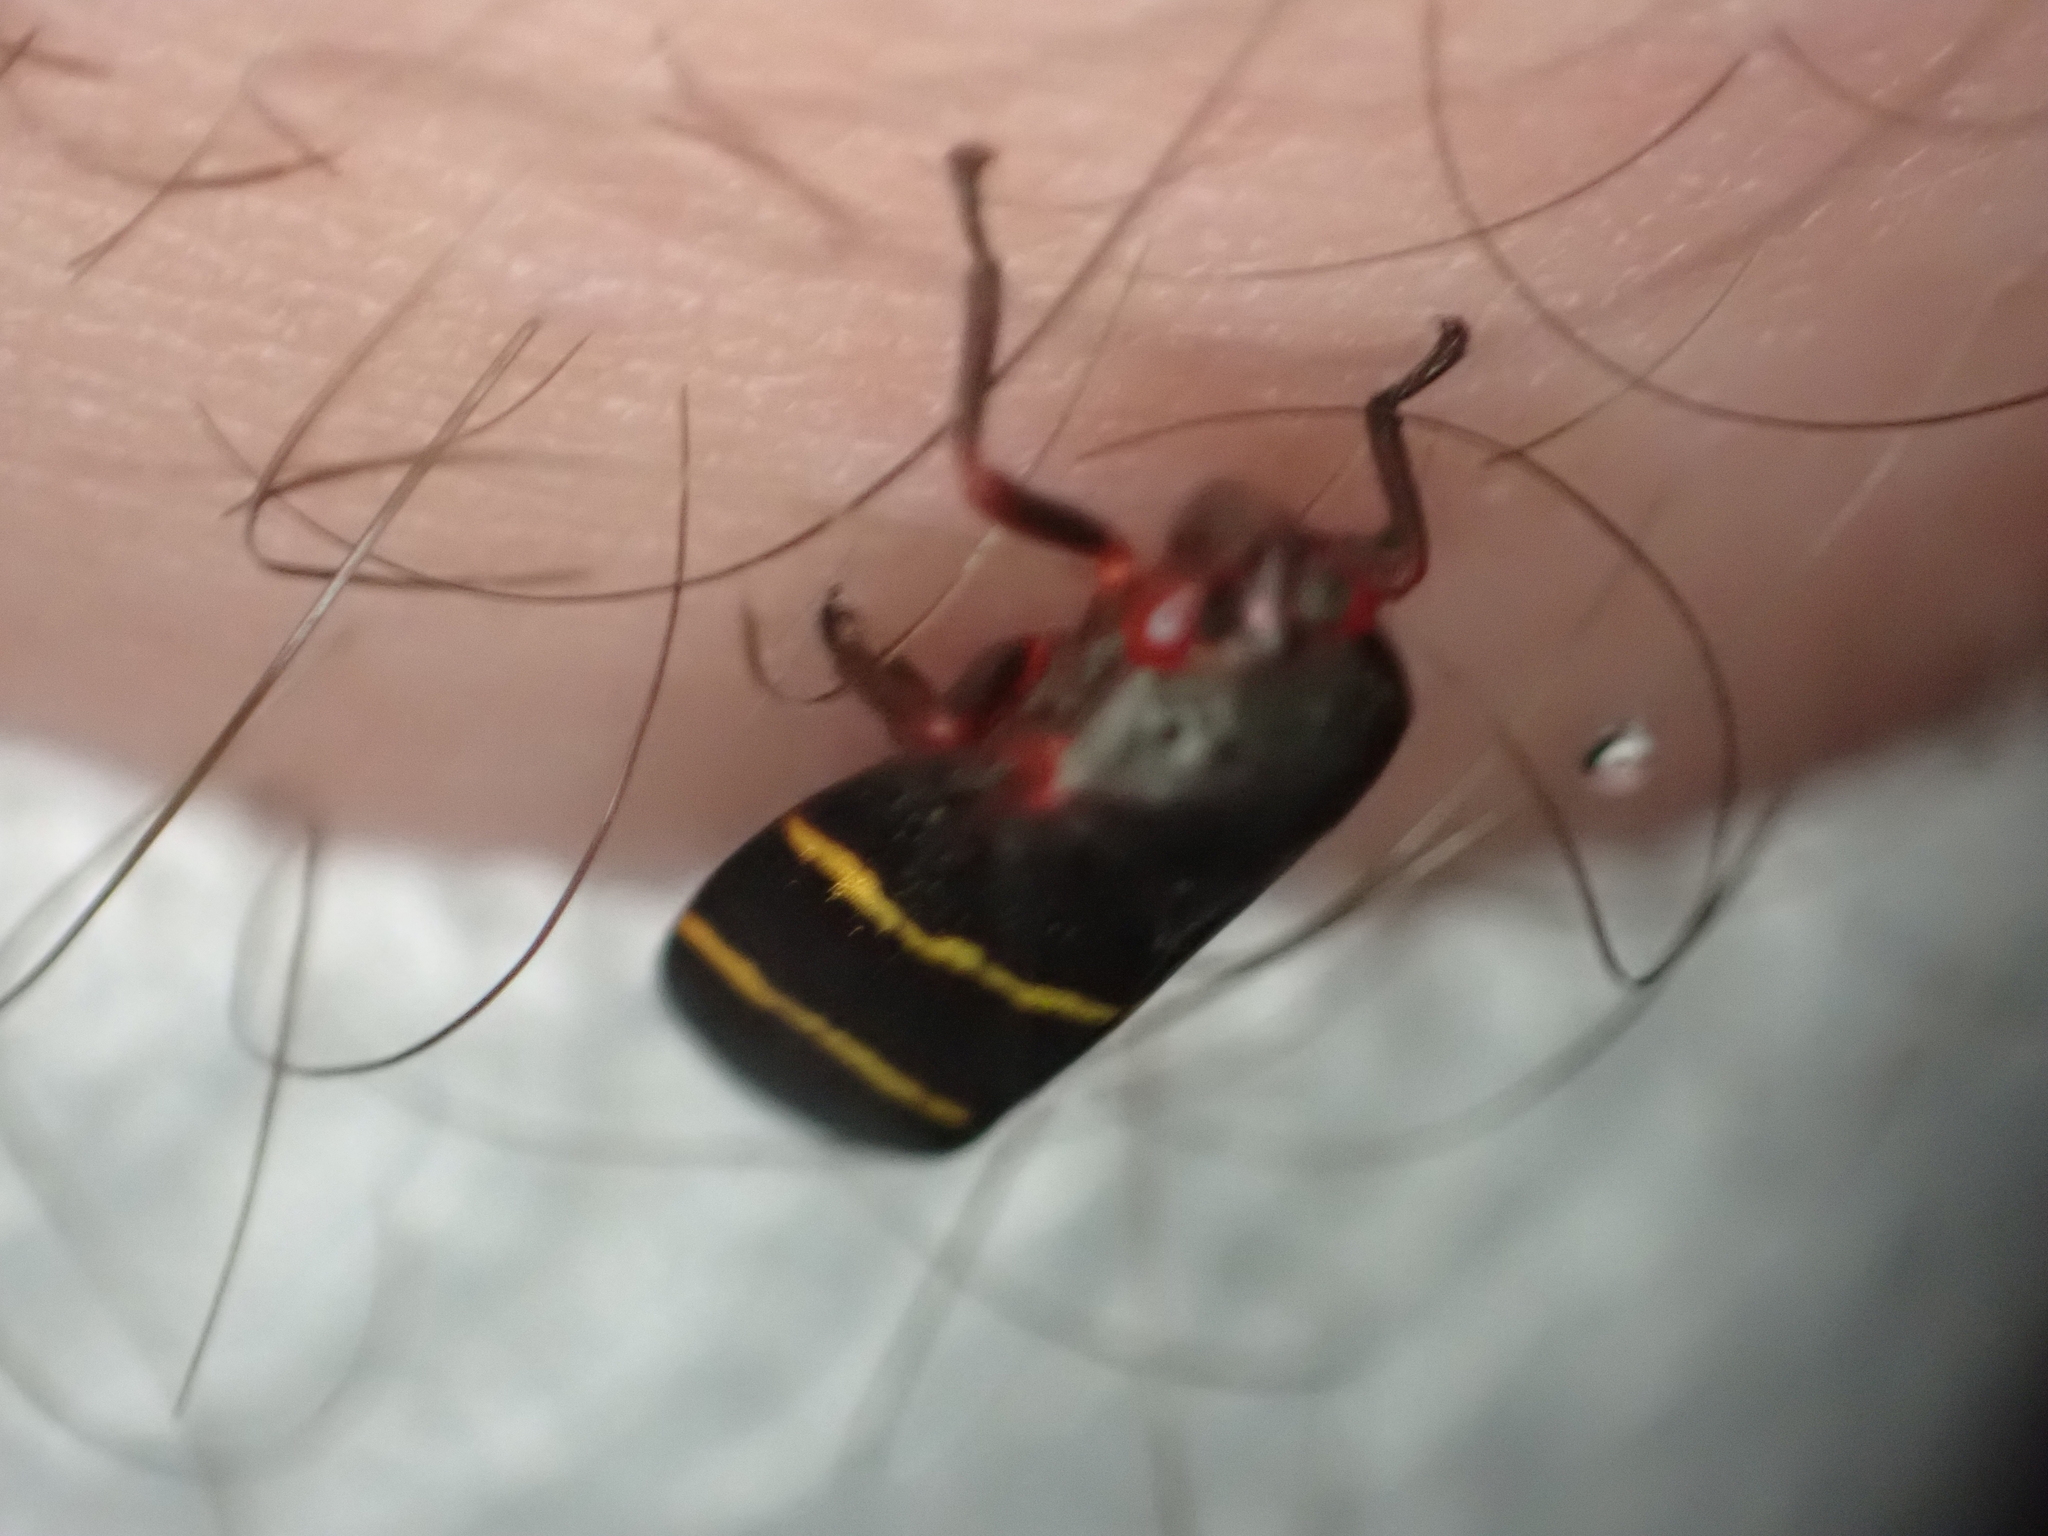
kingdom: Animalia
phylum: Arthropoda
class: Insecta
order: Hemiptera
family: Cercopidae
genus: Prosapia
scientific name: Prosapia bicincta
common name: Twolined spittlebug
